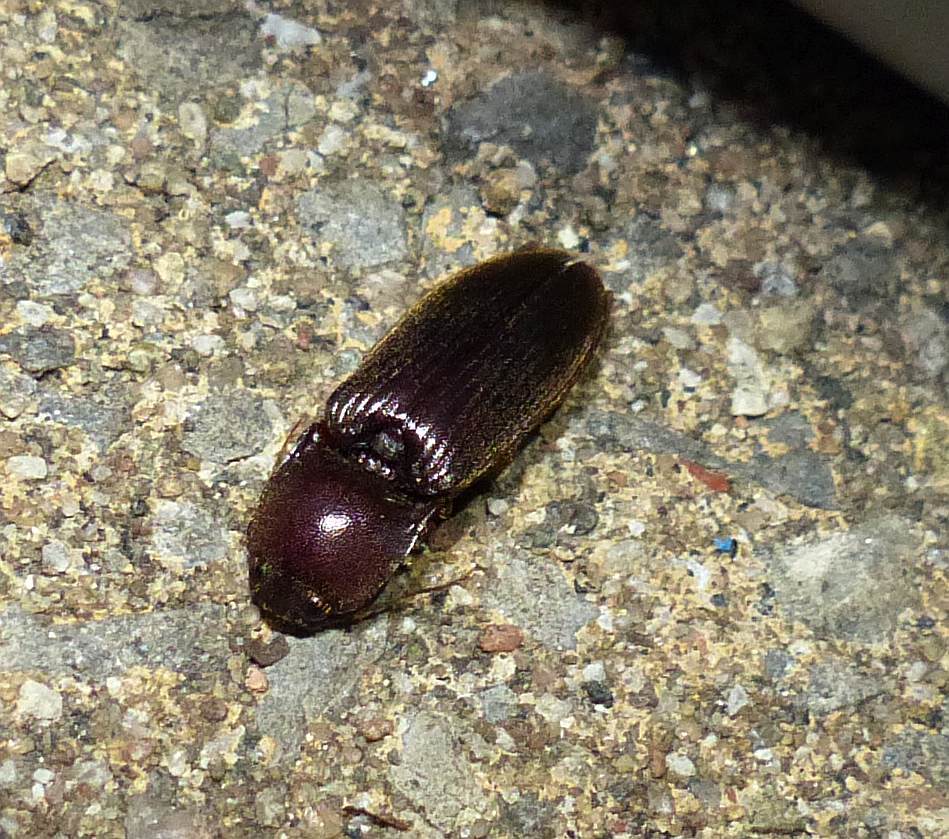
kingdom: Animalia
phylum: Arthropoda
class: Insecta
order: Coleoptera
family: Elateridae
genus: Hemicrepidius
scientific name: Hemicrepidius
